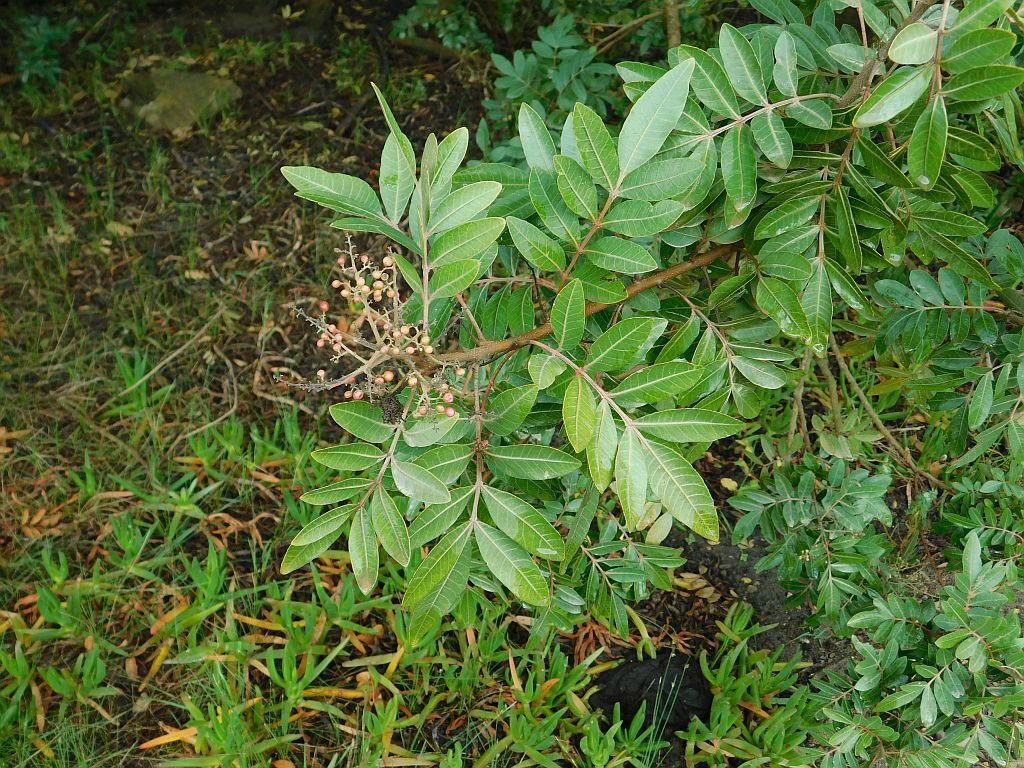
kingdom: Plantae
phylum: Tracheophyta
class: Magnoliopsida
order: Sapindales
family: Anacardiaceae
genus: Schinus
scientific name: Schinus terebinthifolia
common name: Brazilian peppertree
